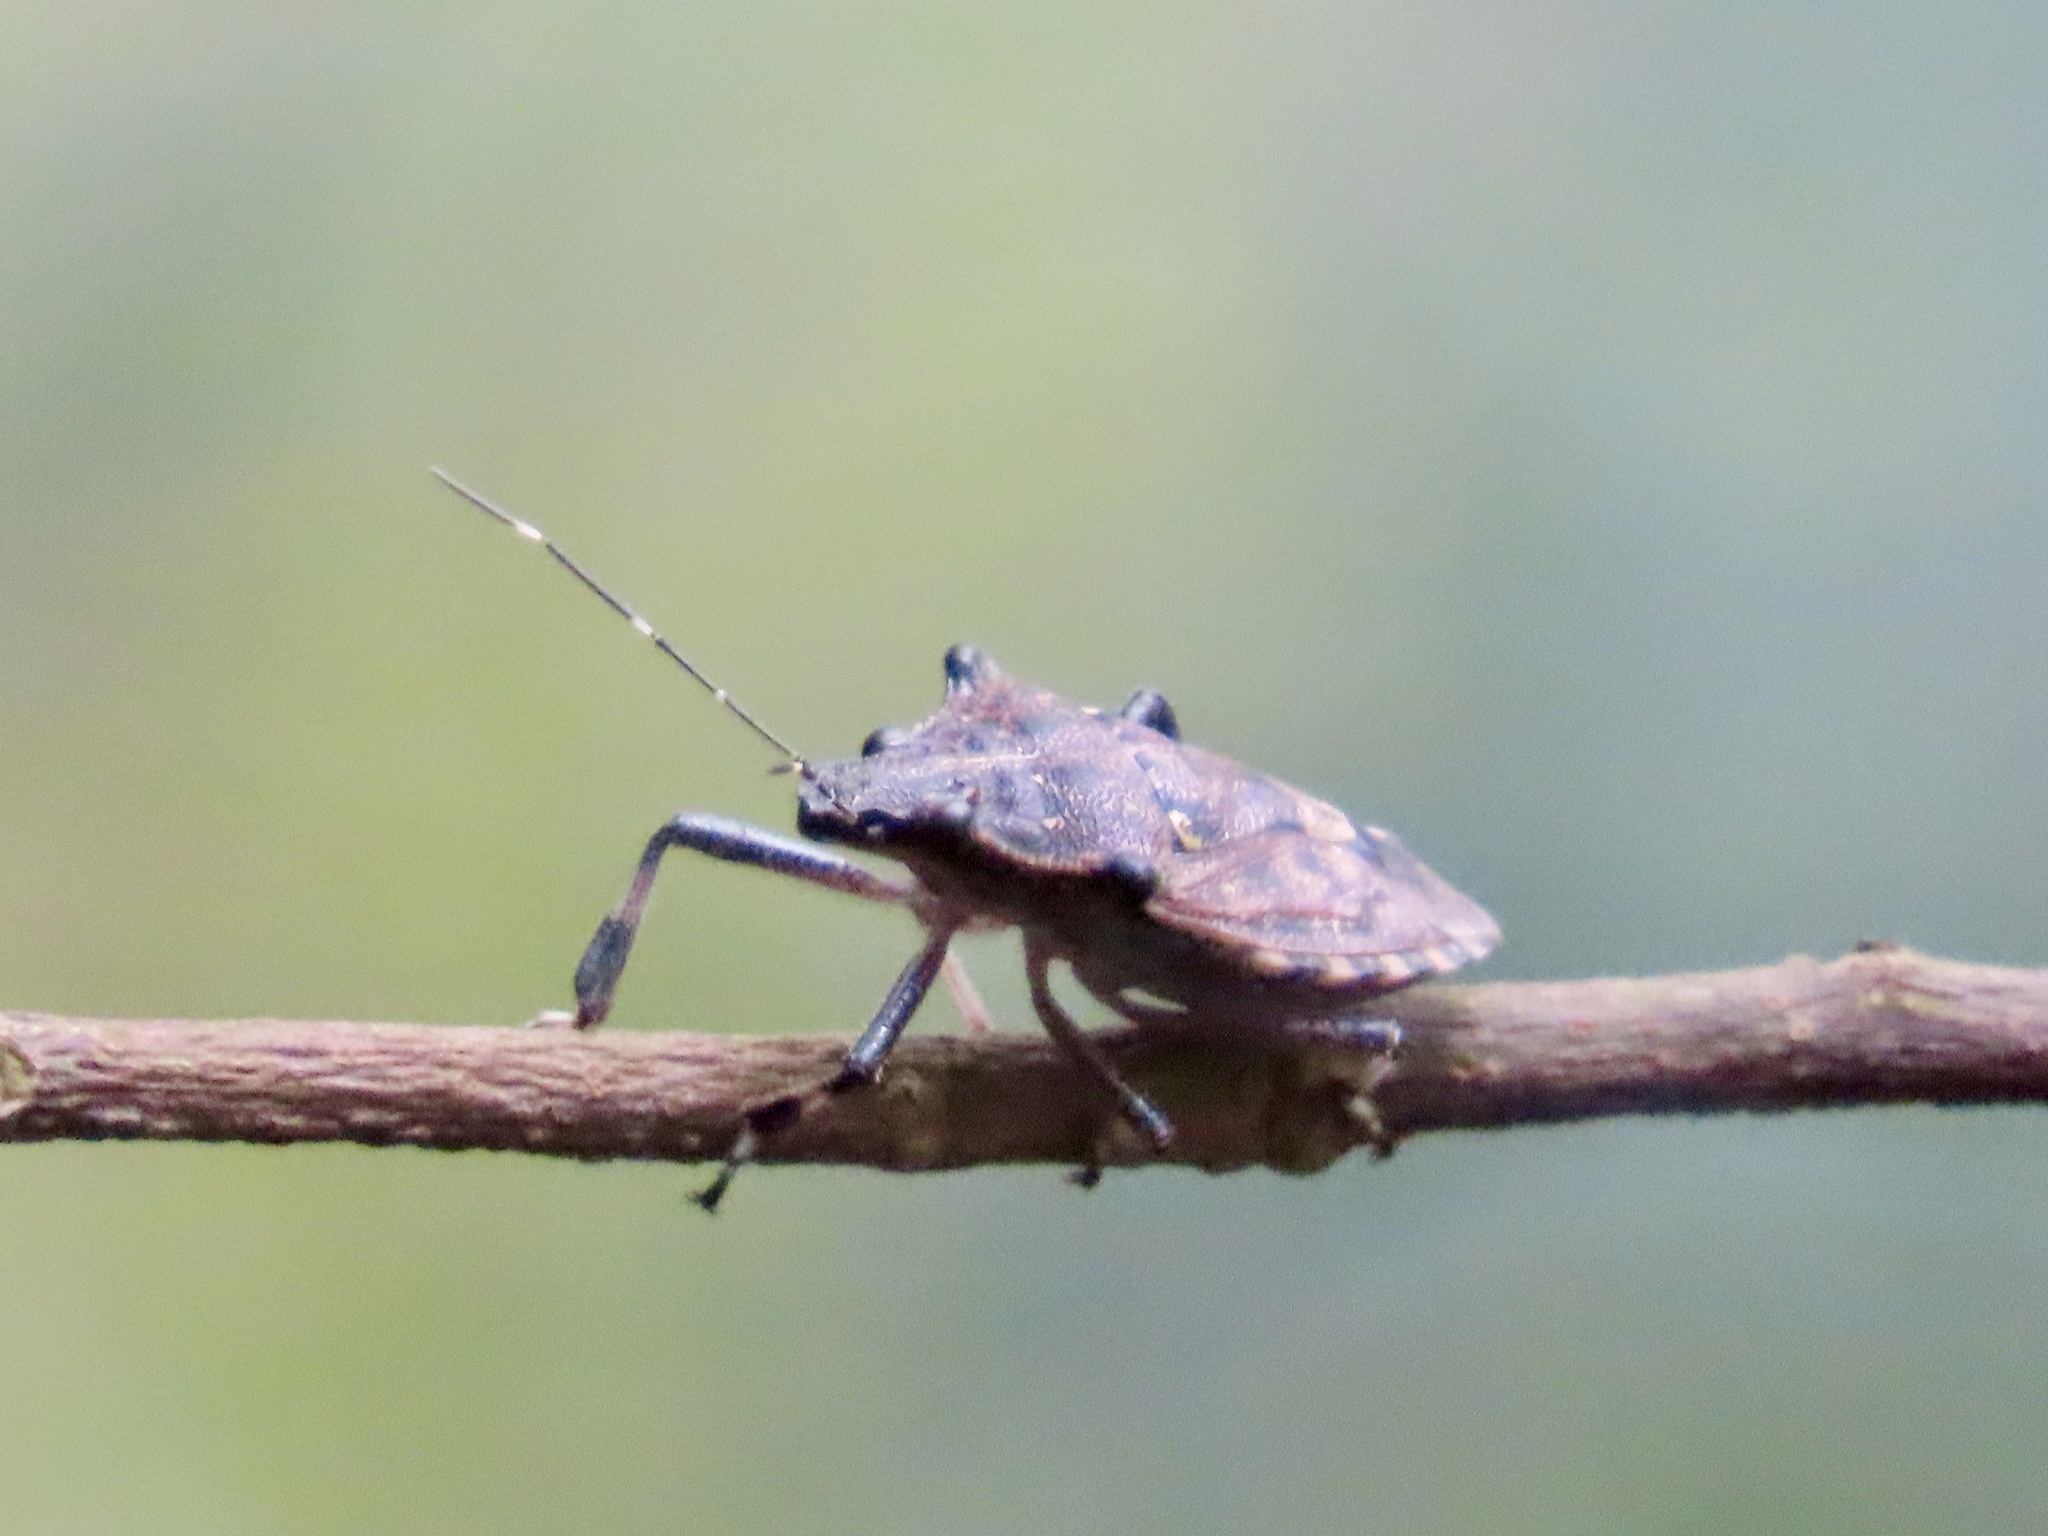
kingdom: Animalia
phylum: Arthropoda
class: Insecta
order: Hemiptera
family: Pentatomidae
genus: Dalpada
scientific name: Dalpada nodifera
